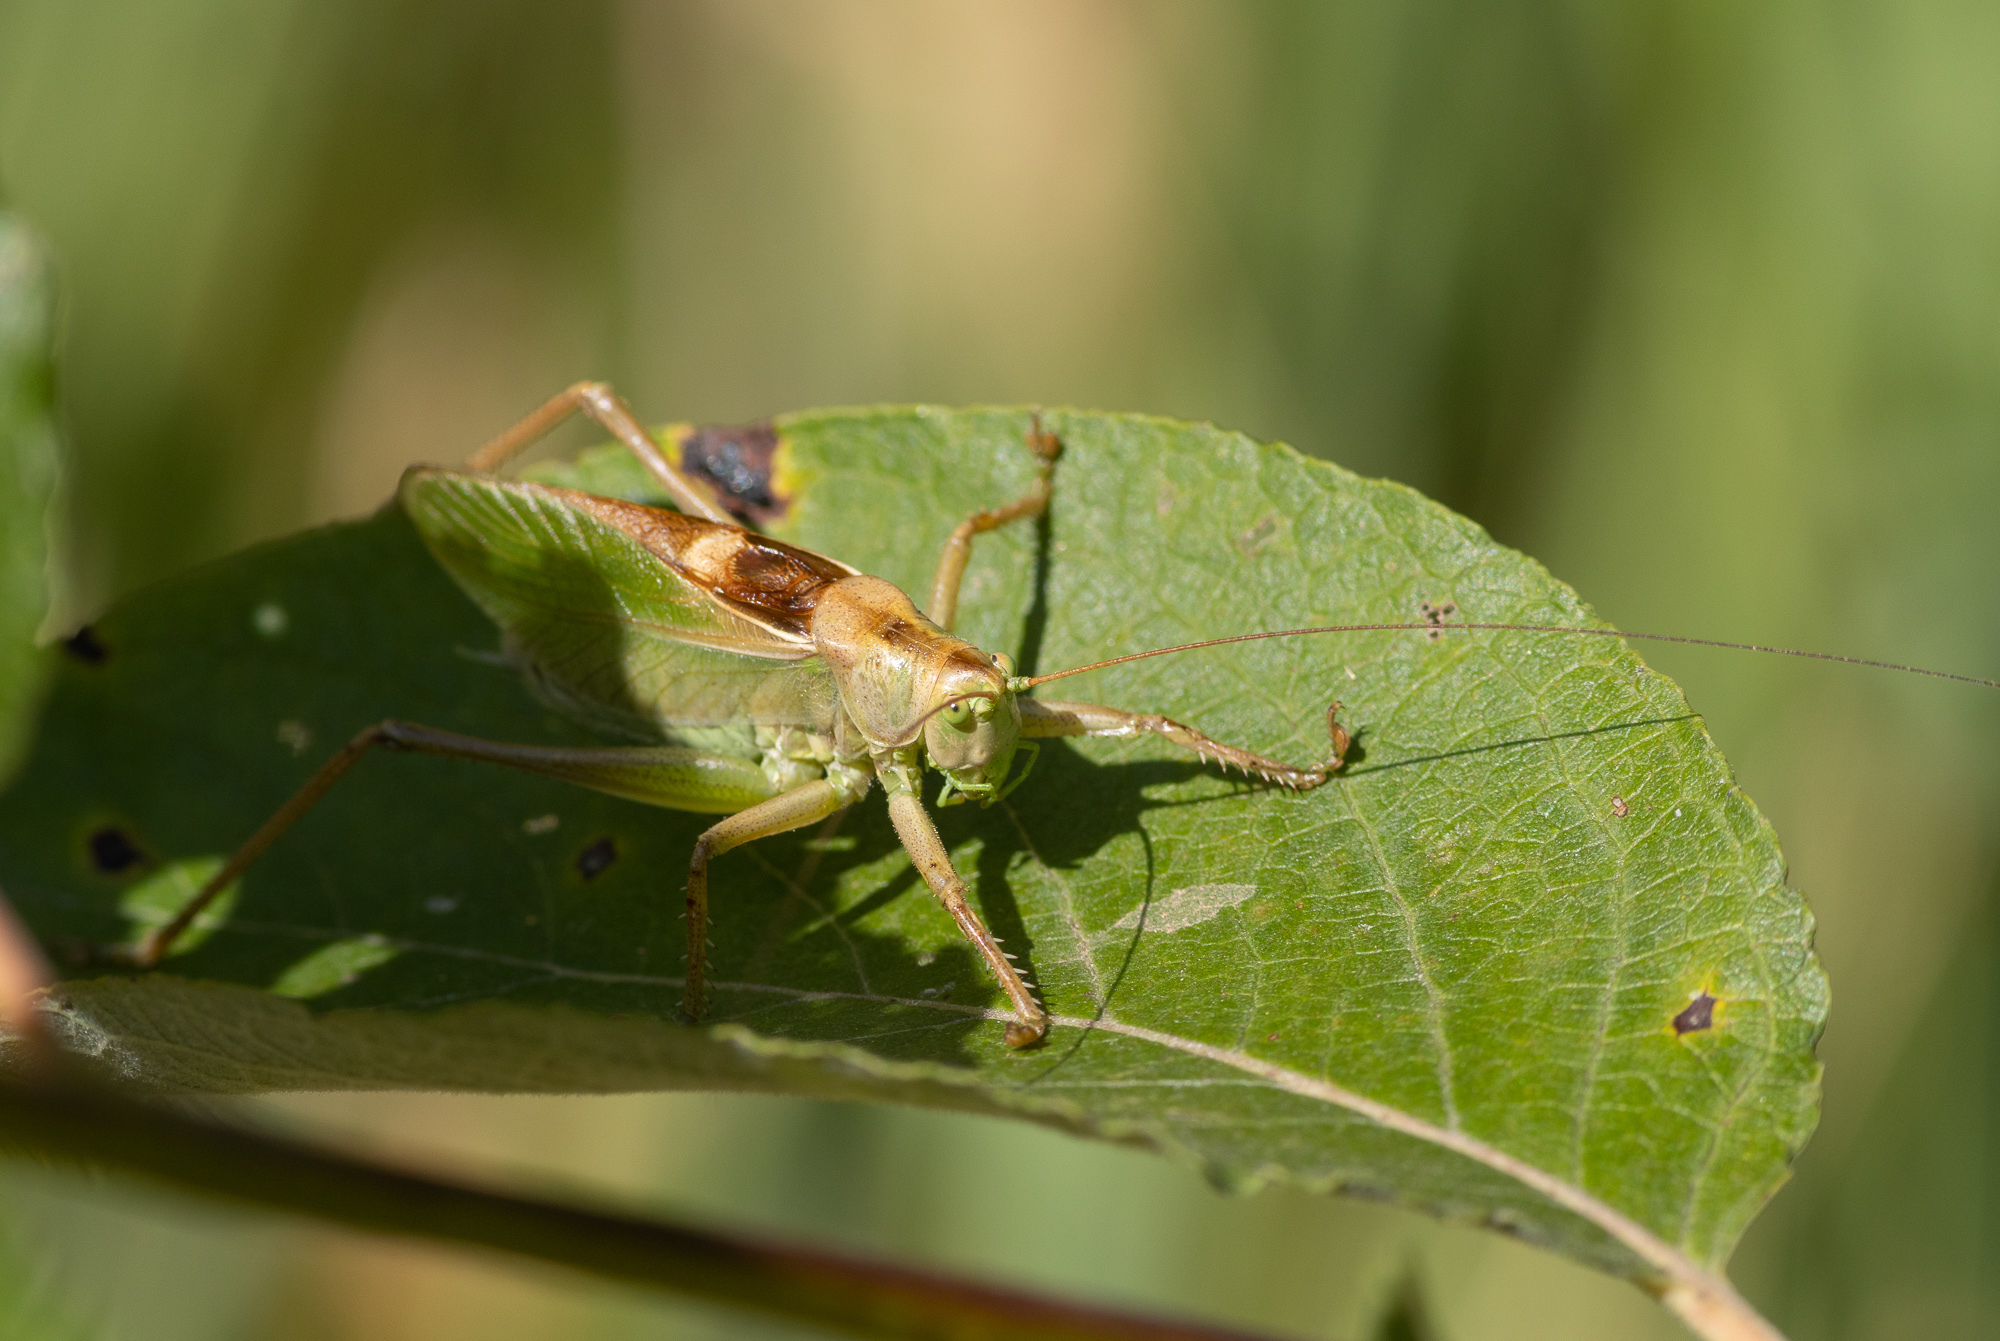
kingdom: Animalia
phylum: Arthropoda
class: Insecta
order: Orthoptera
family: Tettigoniidae
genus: Tettigonia
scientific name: Tettigonia cantans
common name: Upland green bush-cricket
